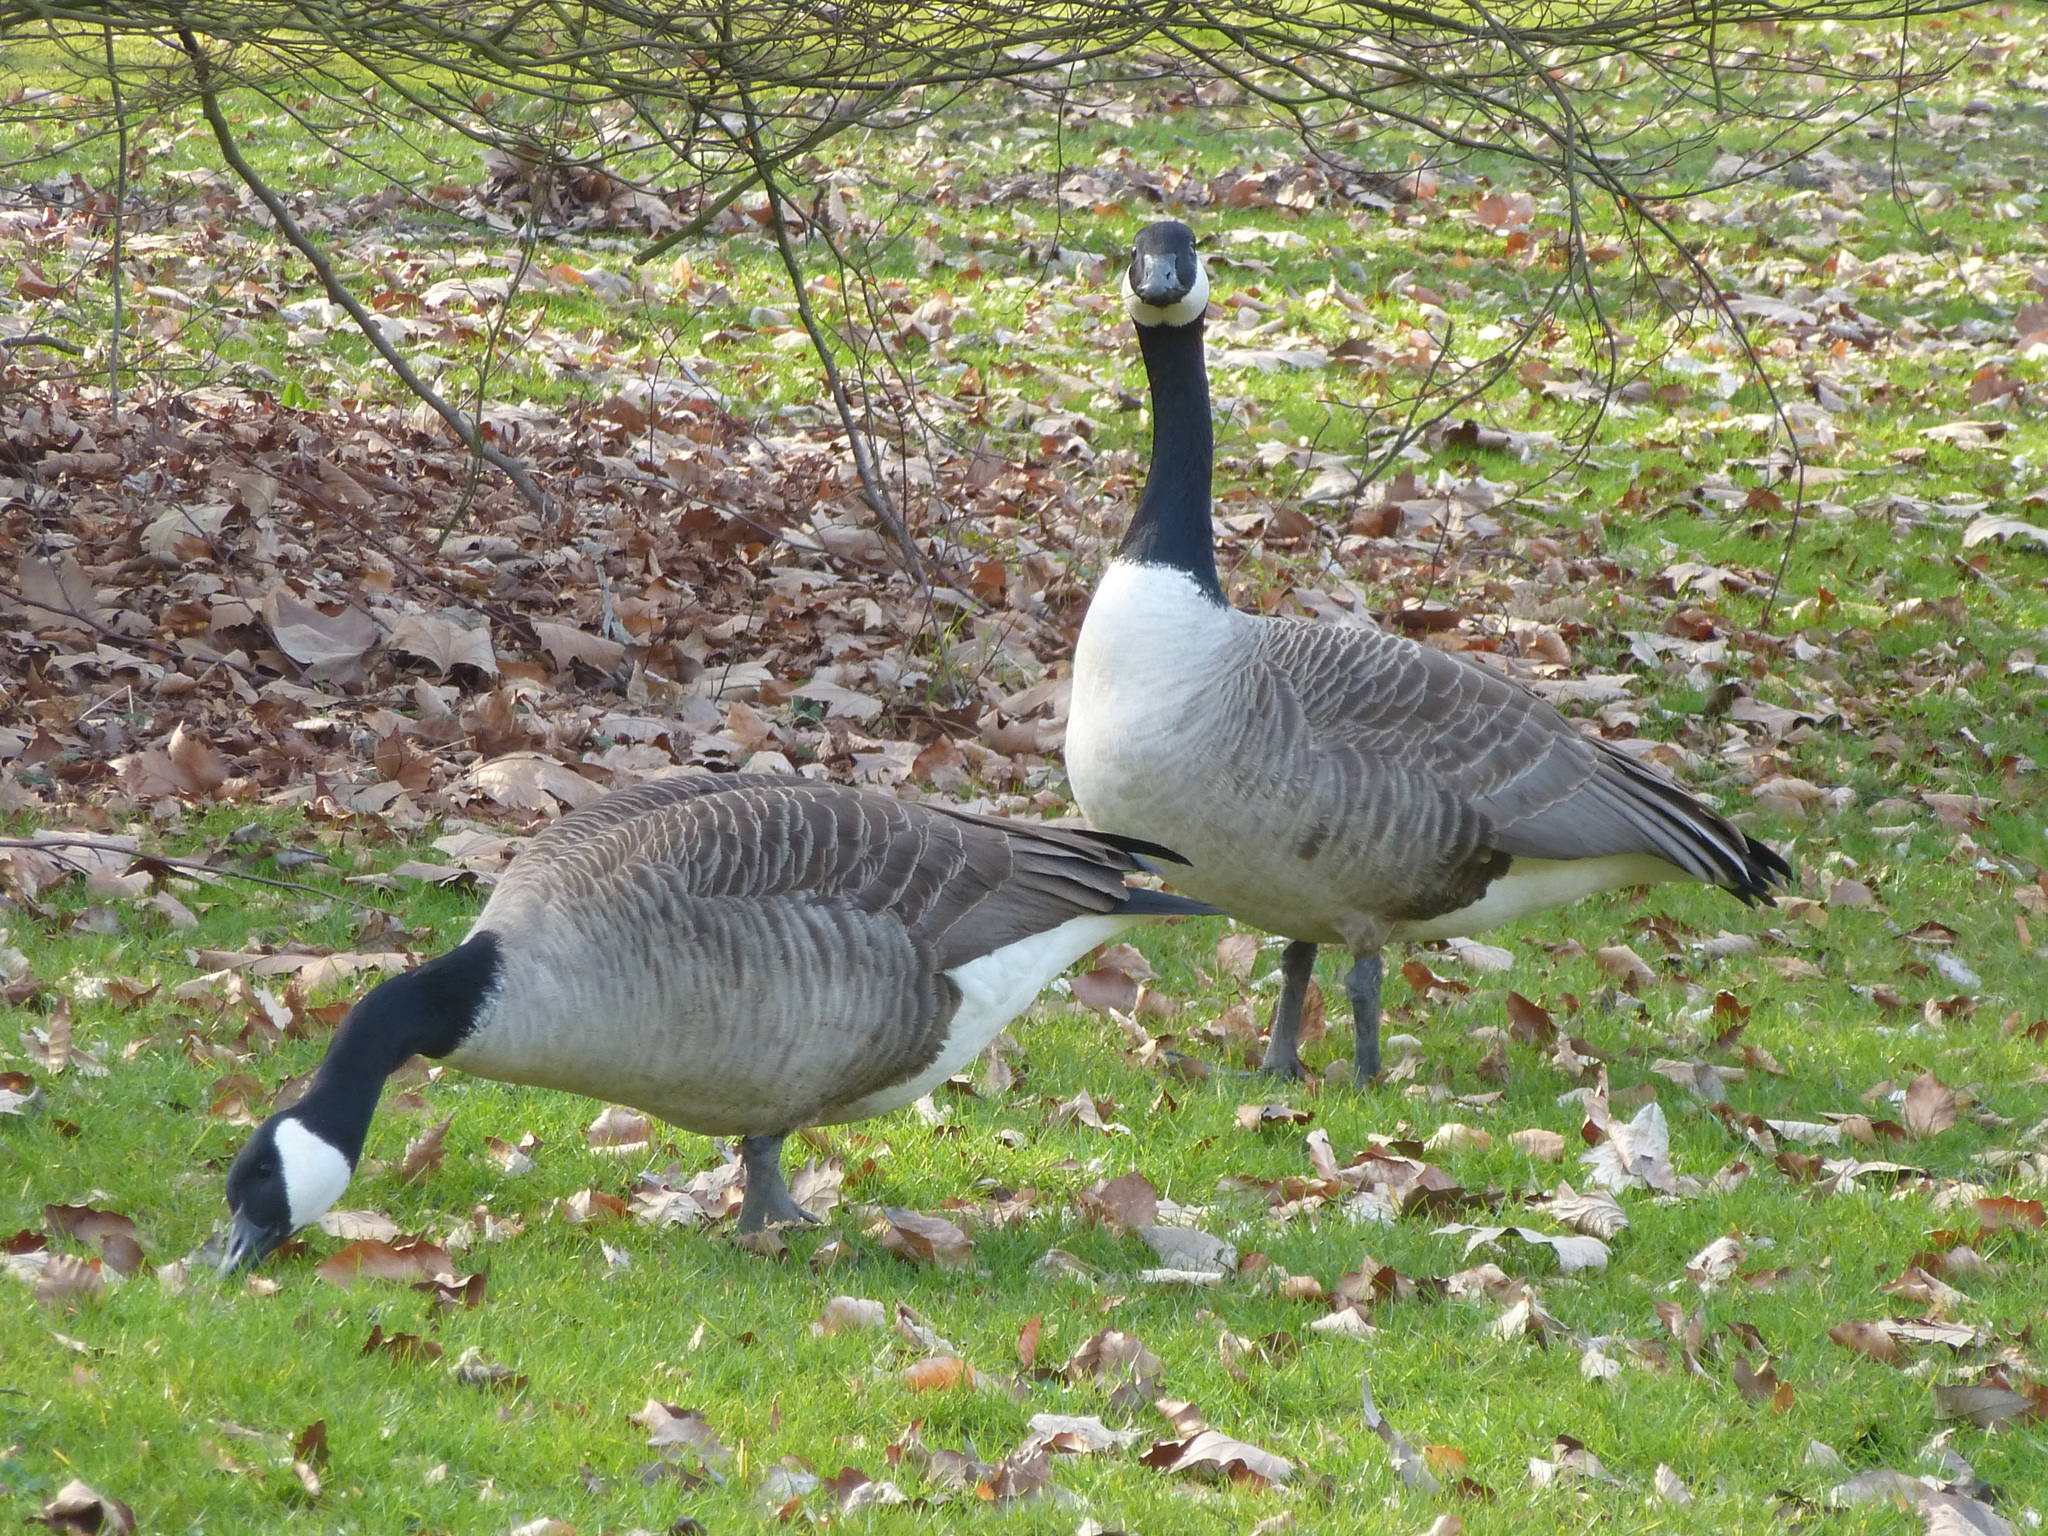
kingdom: Animalia
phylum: Chordata
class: Aves
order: Anseriformes
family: Anatidae
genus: Branta
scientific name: Branta canadensis
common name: Canada goose
